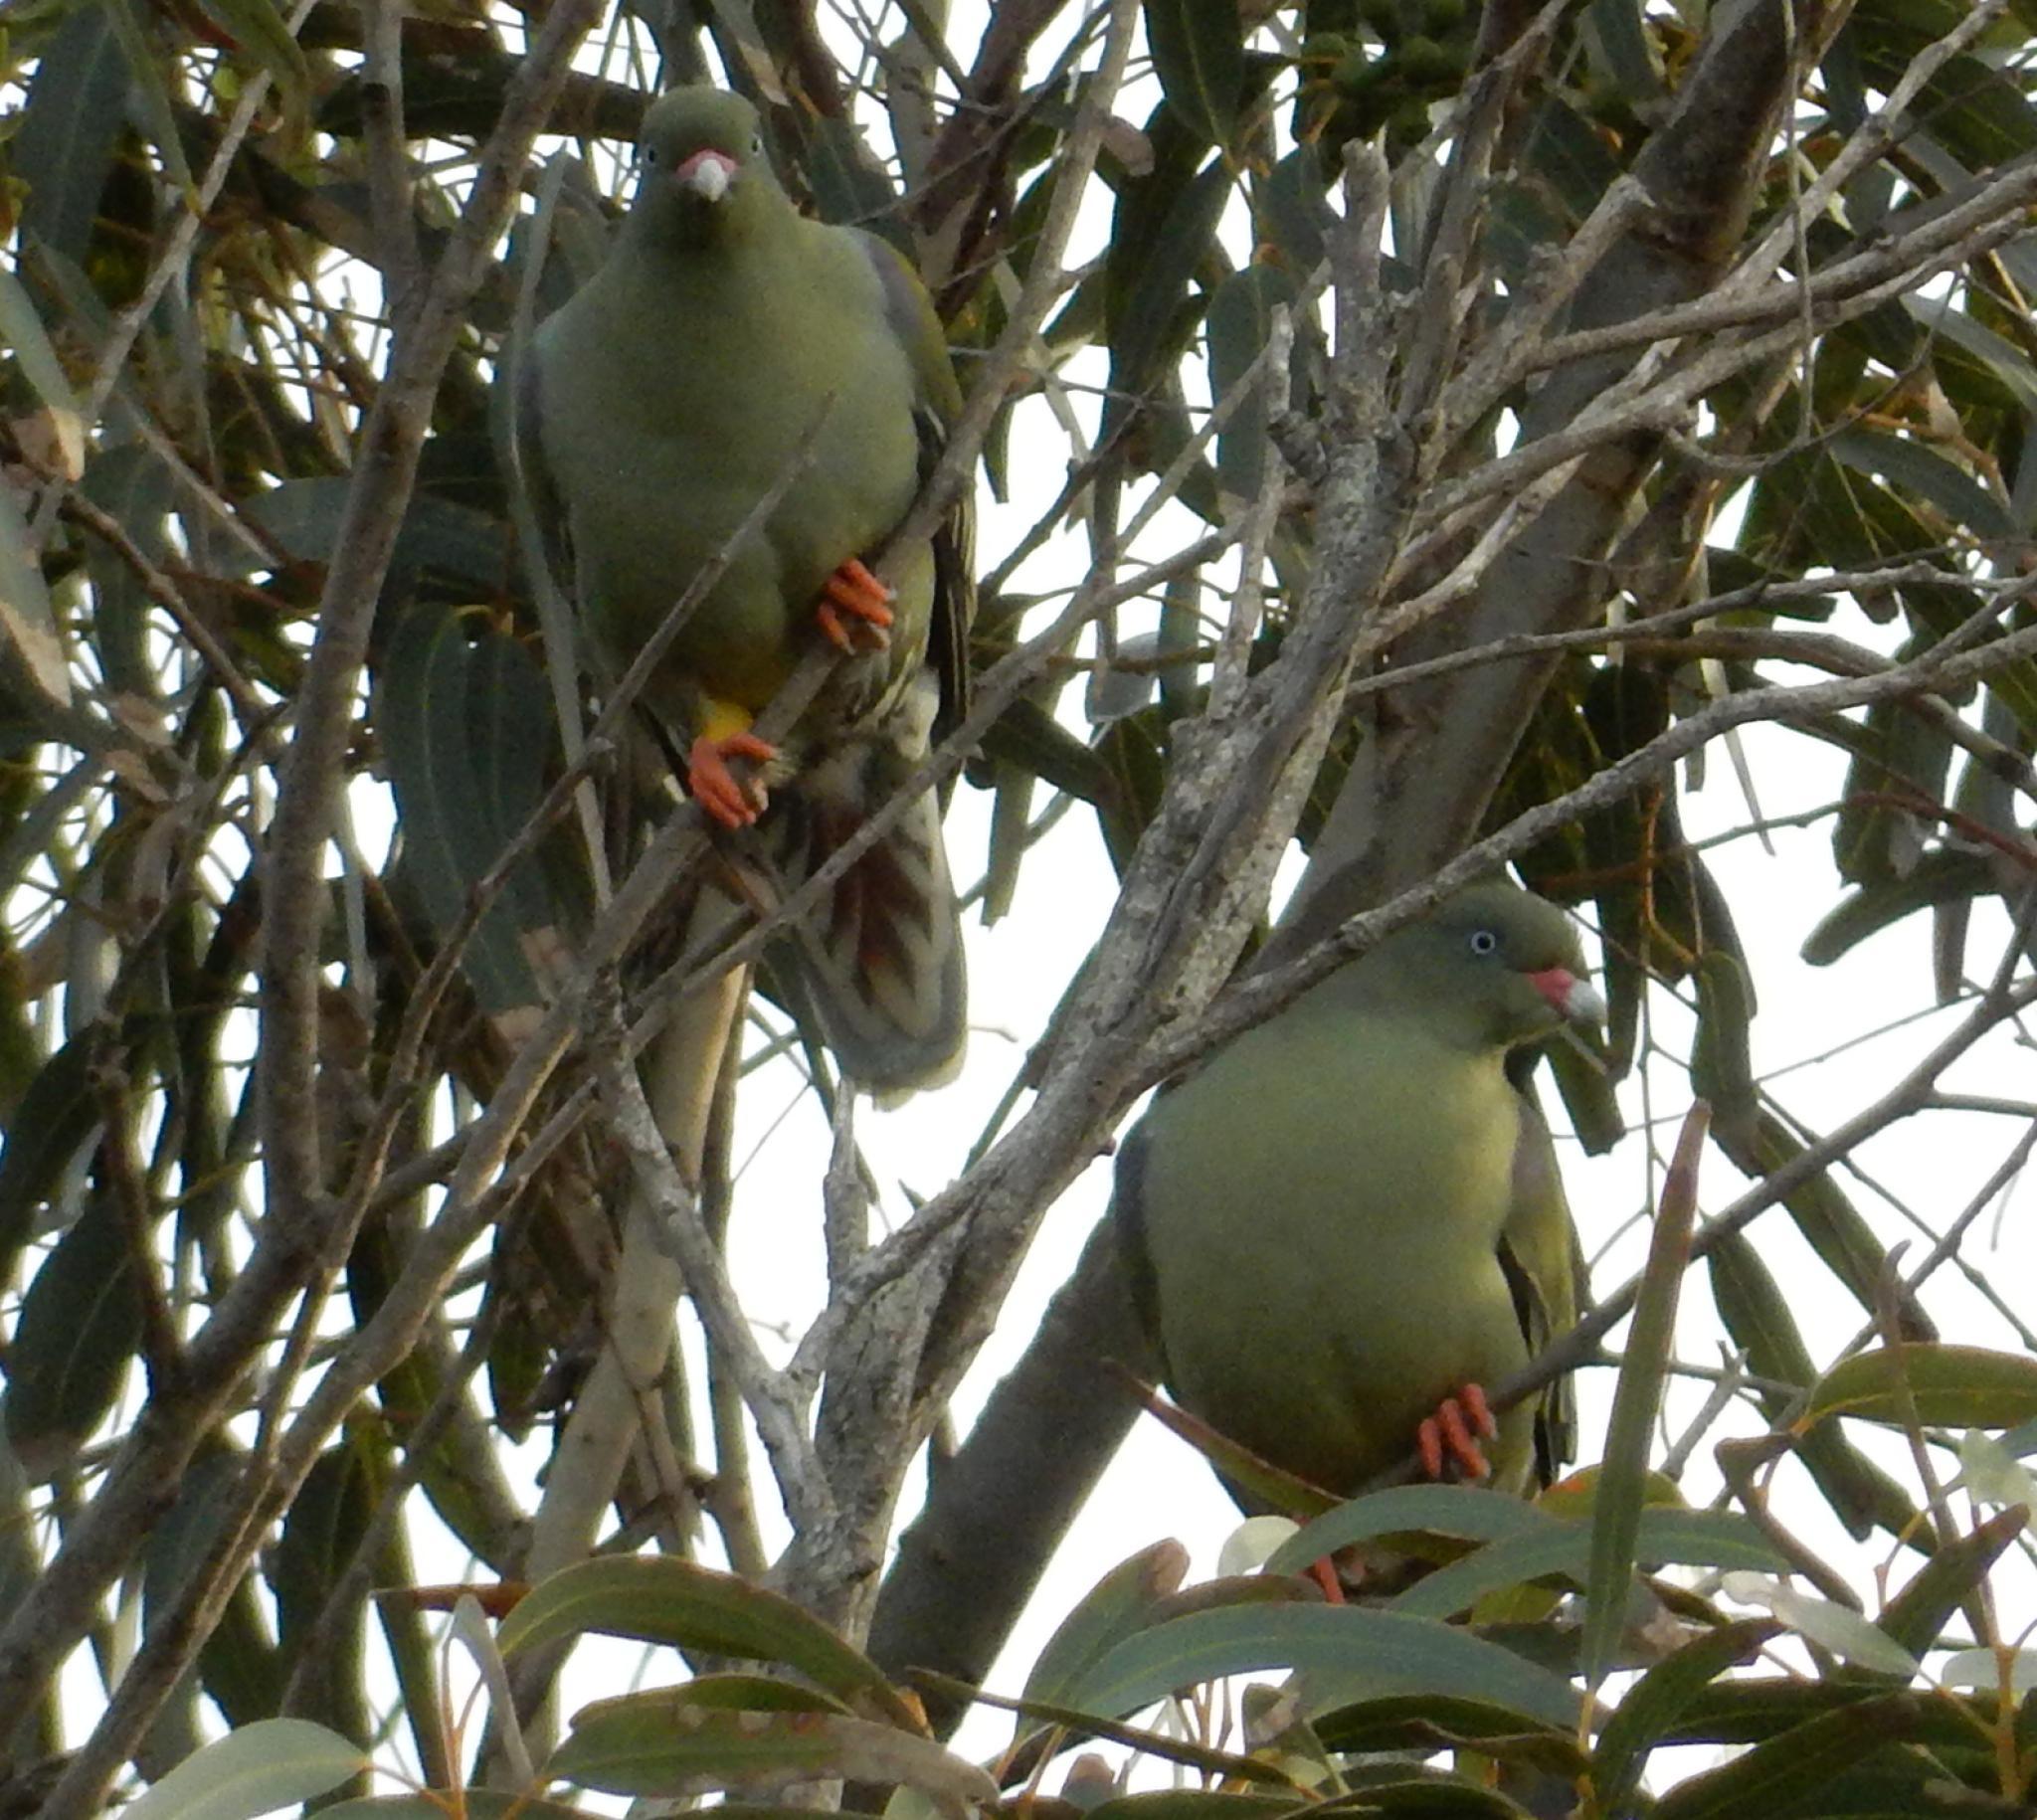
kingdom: Animalia
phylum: Chordata
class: Aves
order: Columbiformes
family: Columbidae
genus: Treron
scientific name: Treron calvus
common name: African green pigeon
